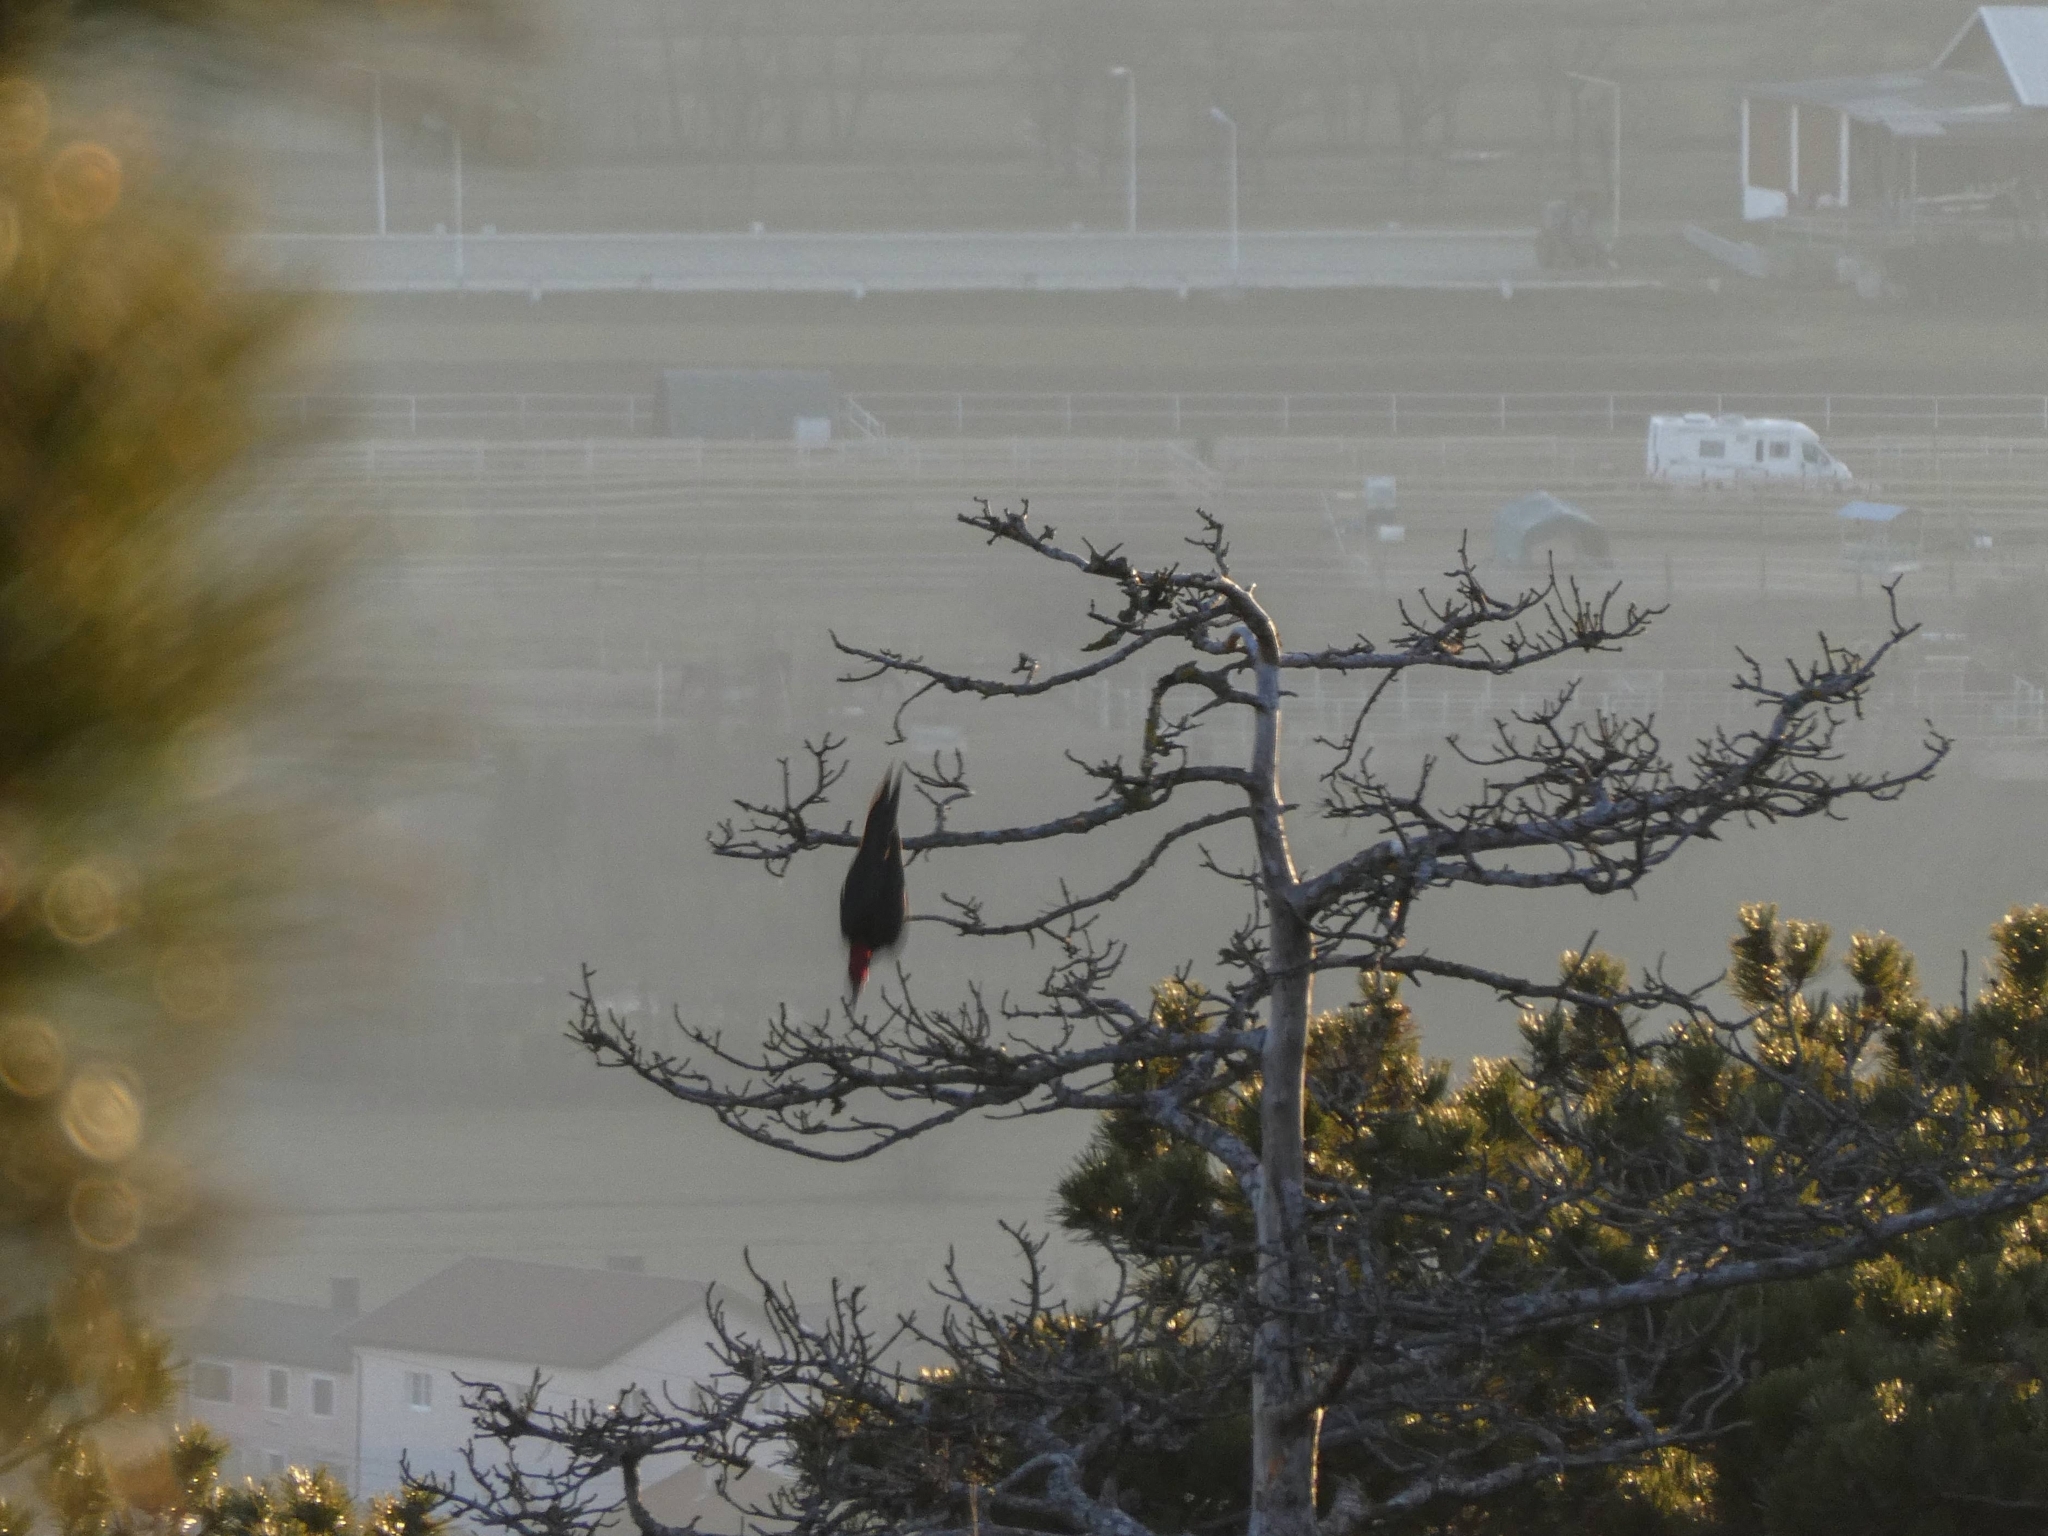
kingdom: Animalia
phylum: Chordata
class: Aves
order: Piciformes
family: Picidae
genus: Dryocopus
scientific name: Dryocopus martius
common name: Black woodpecker
